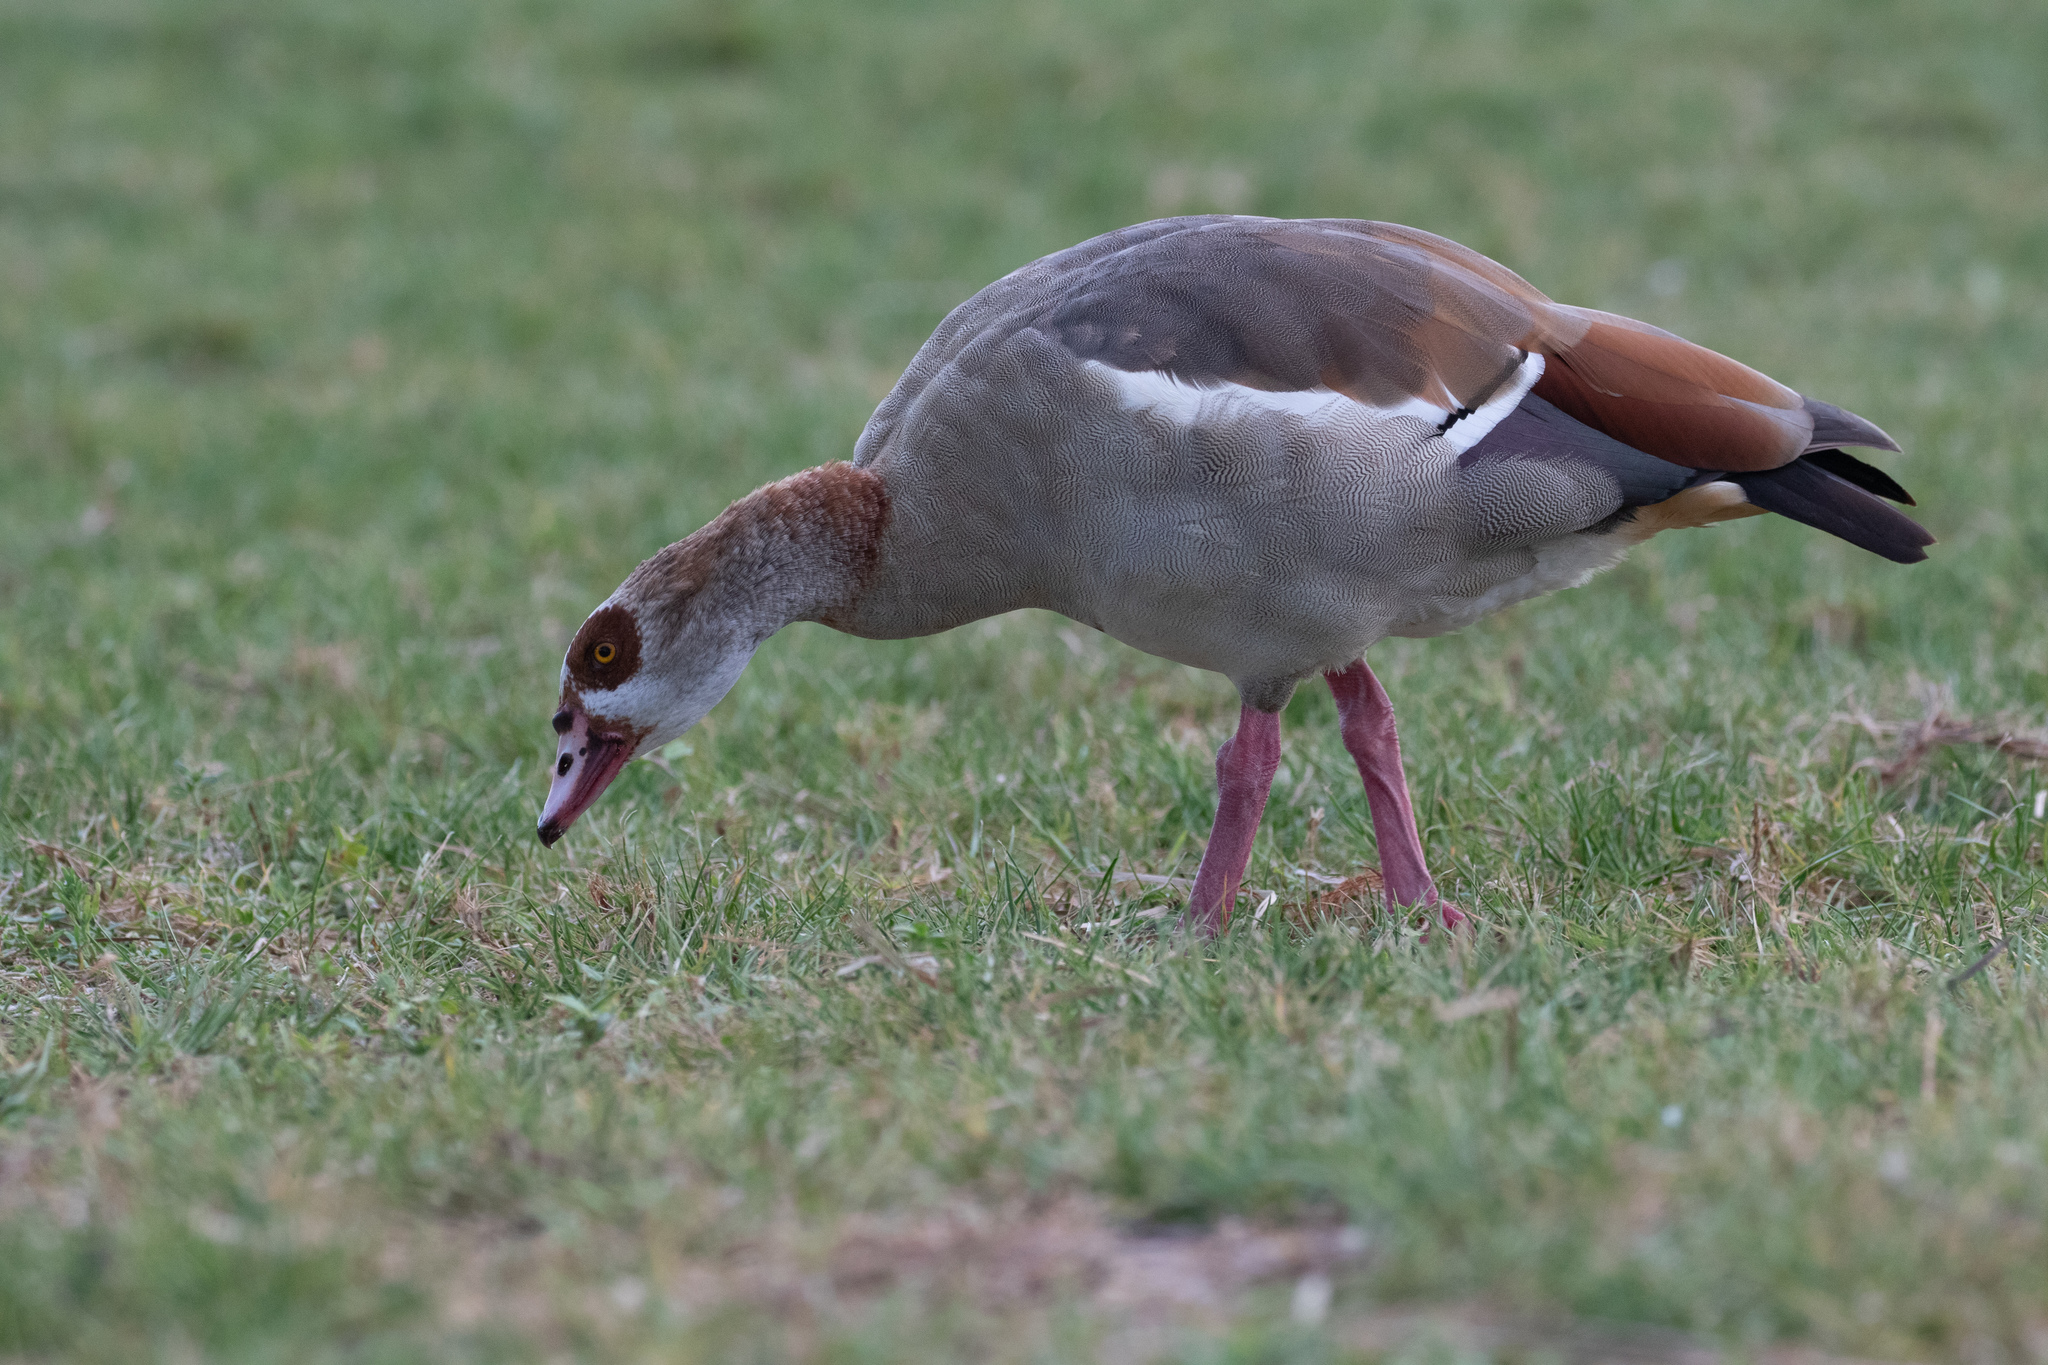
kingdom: Animalia
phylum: Chordata
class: Aves
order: Anseriformes
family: Anatidae
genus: Alopochen
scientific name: Alopochen aegyptiaca
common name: Egyptian goose
